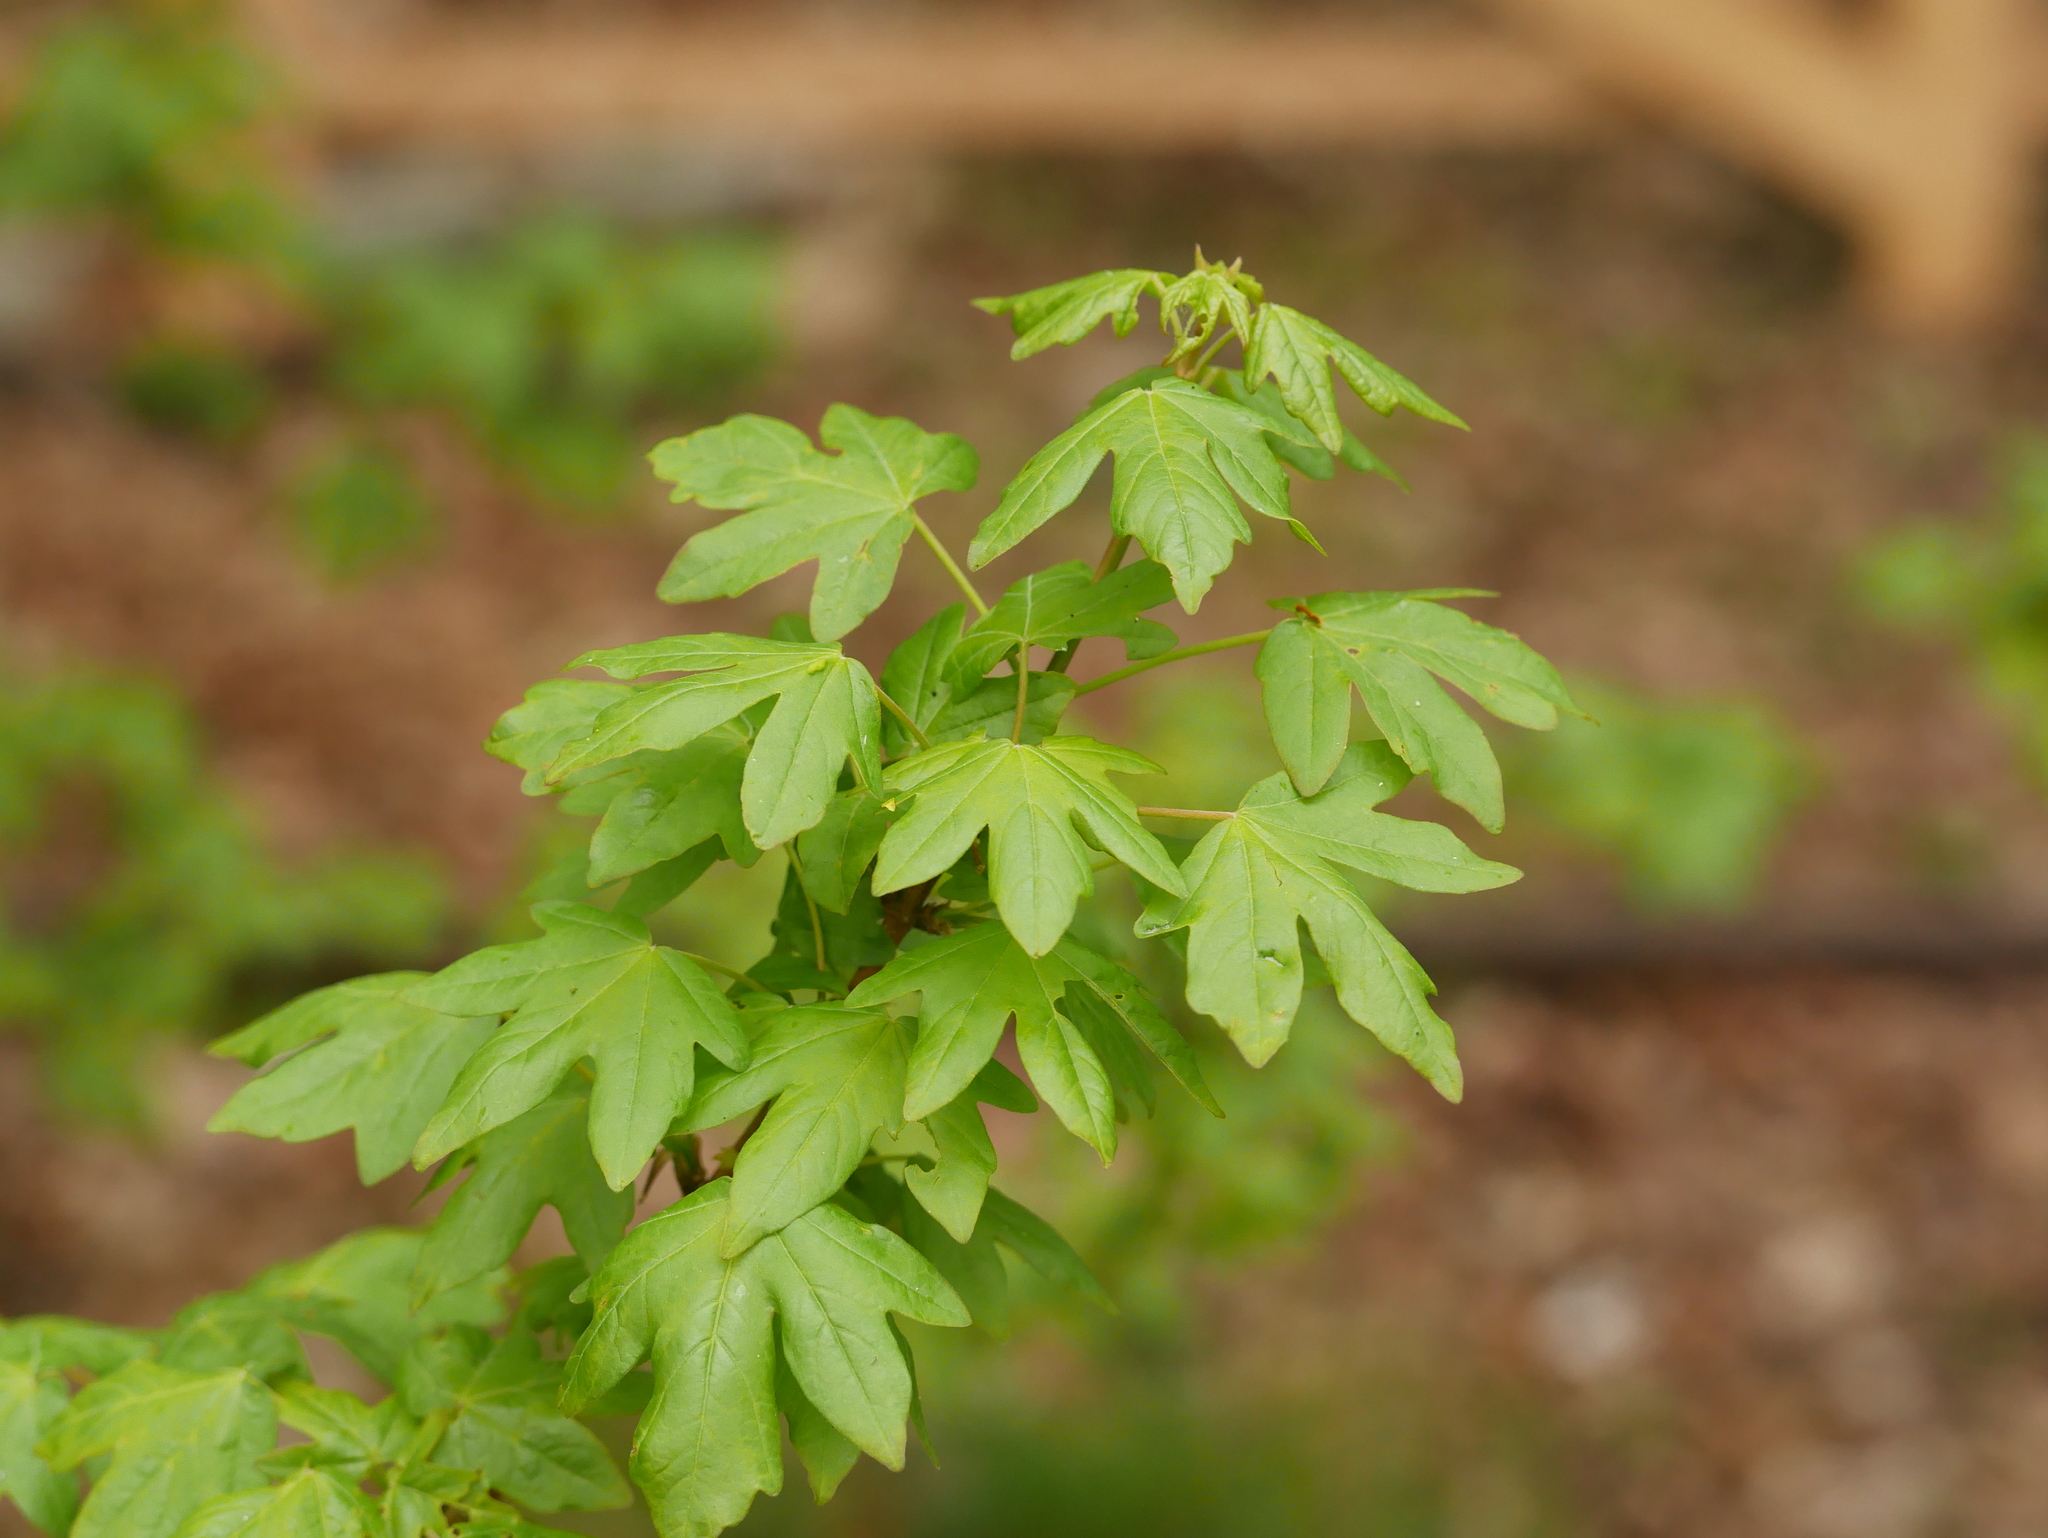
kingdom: Plantae
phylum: Tracheophyta
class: Magnoliopsida
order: Sapindales
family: Sapindaceae
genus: Acer
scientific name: Acer campestre
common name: Field maple
